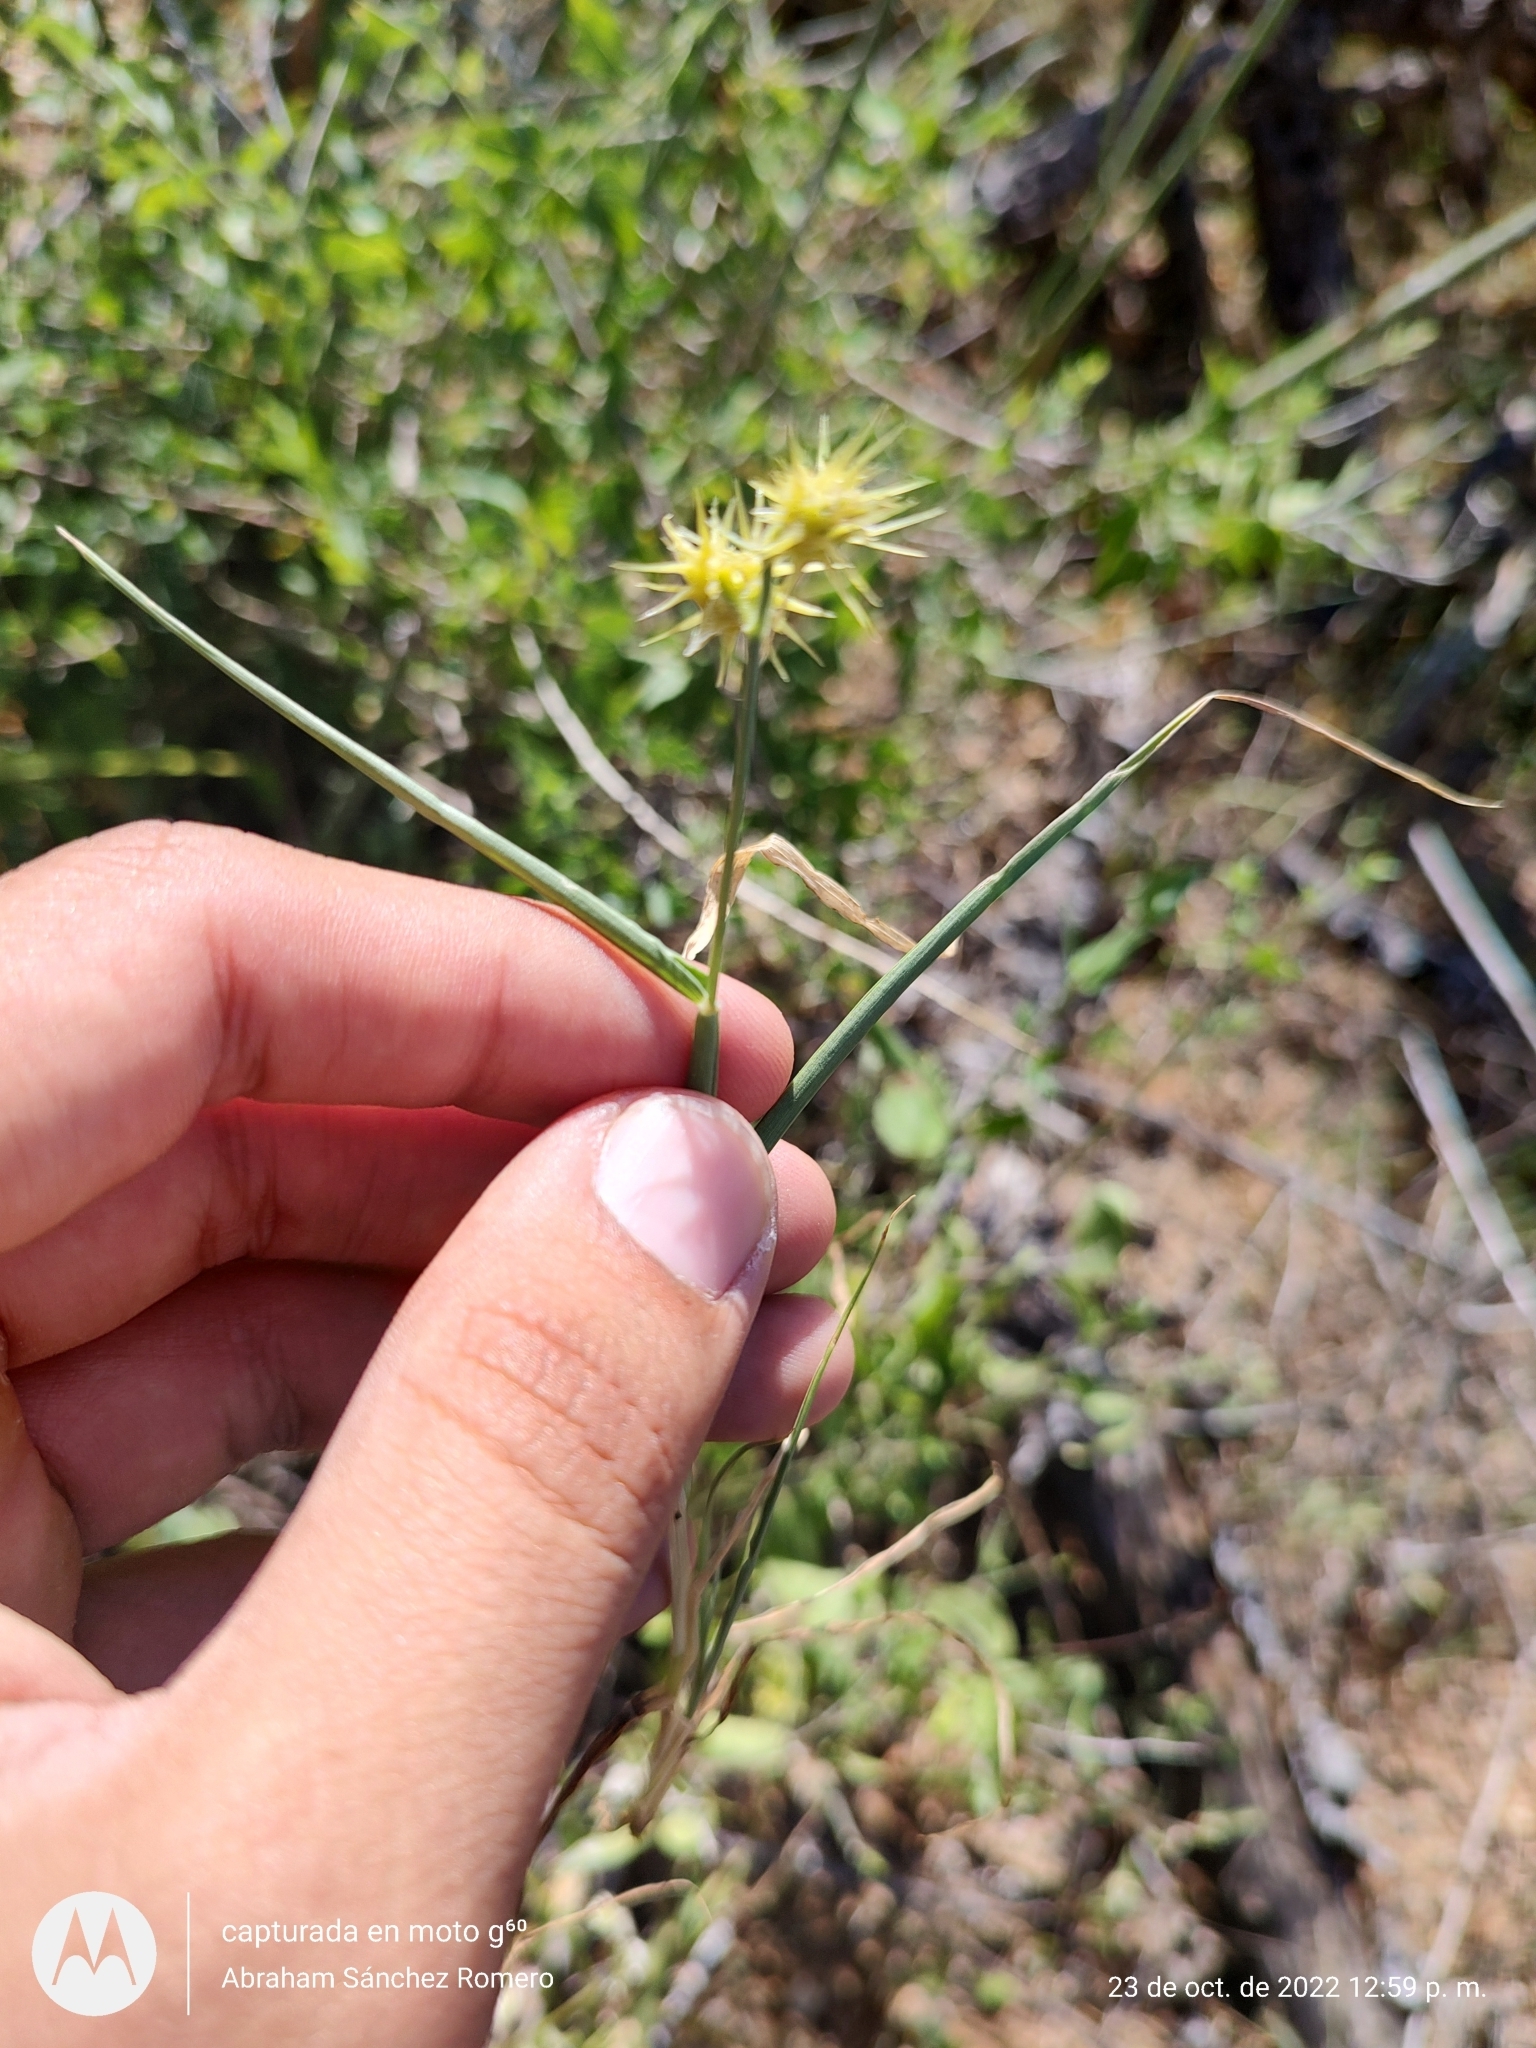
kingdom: Plantae
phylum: Tracheophyta
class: Liliopsida
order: Poales
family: Poaceae
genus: Cenchrus
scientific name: Cenchrus palmeri
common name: Giant sandbur
